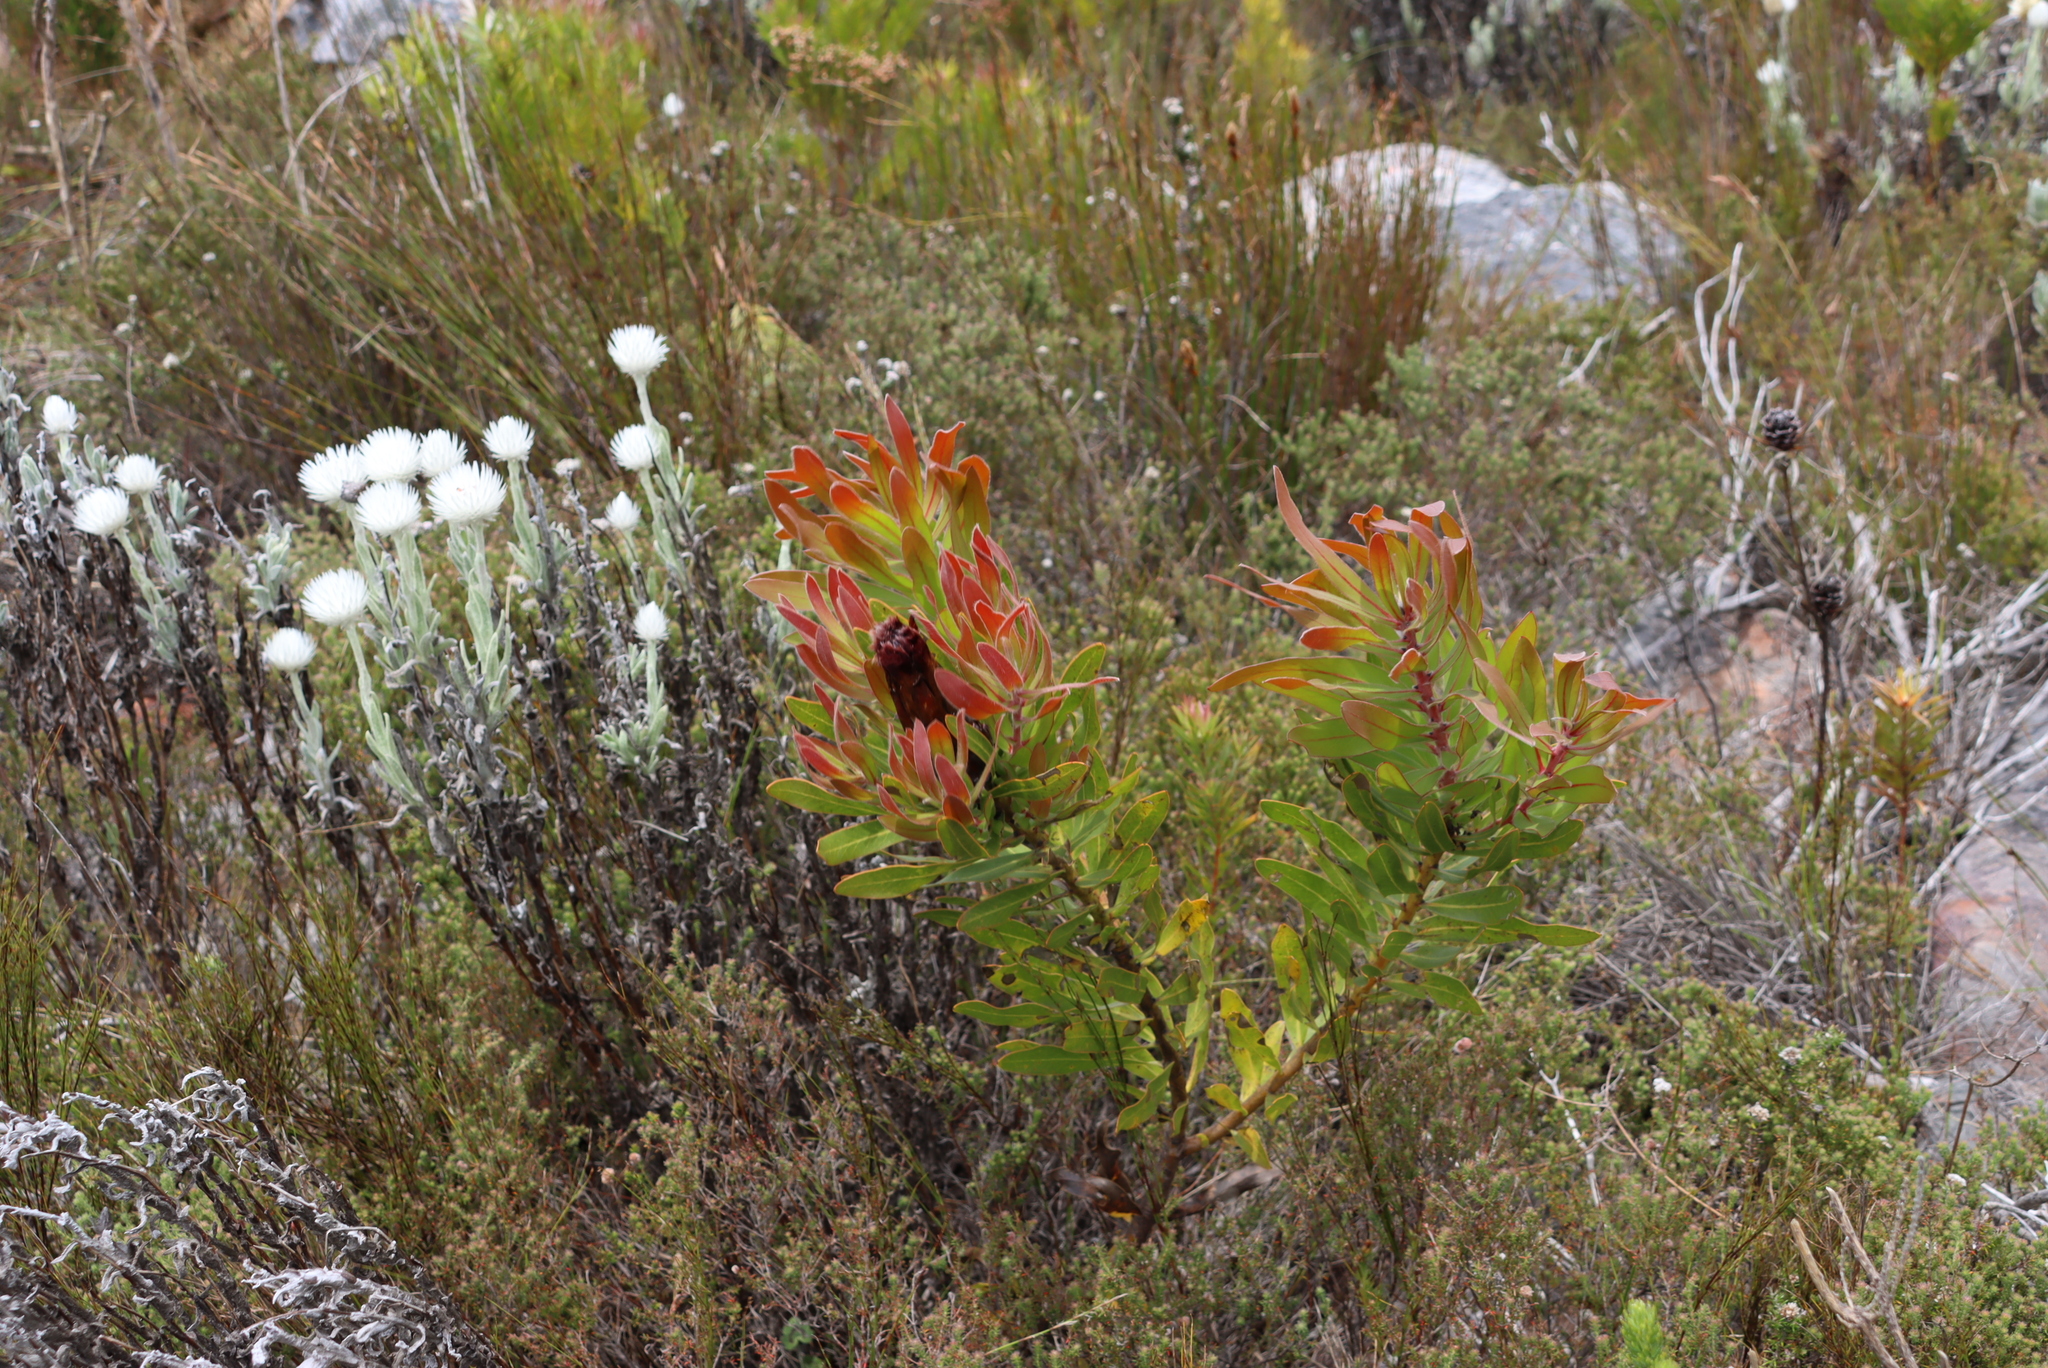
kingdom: Plantae
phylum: Tracheophyta
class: Magnoliopsida
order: Proteales
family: Proteaceae
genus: Protea
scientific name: Protea lepidocarpodendron
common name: Black-bearded protea
